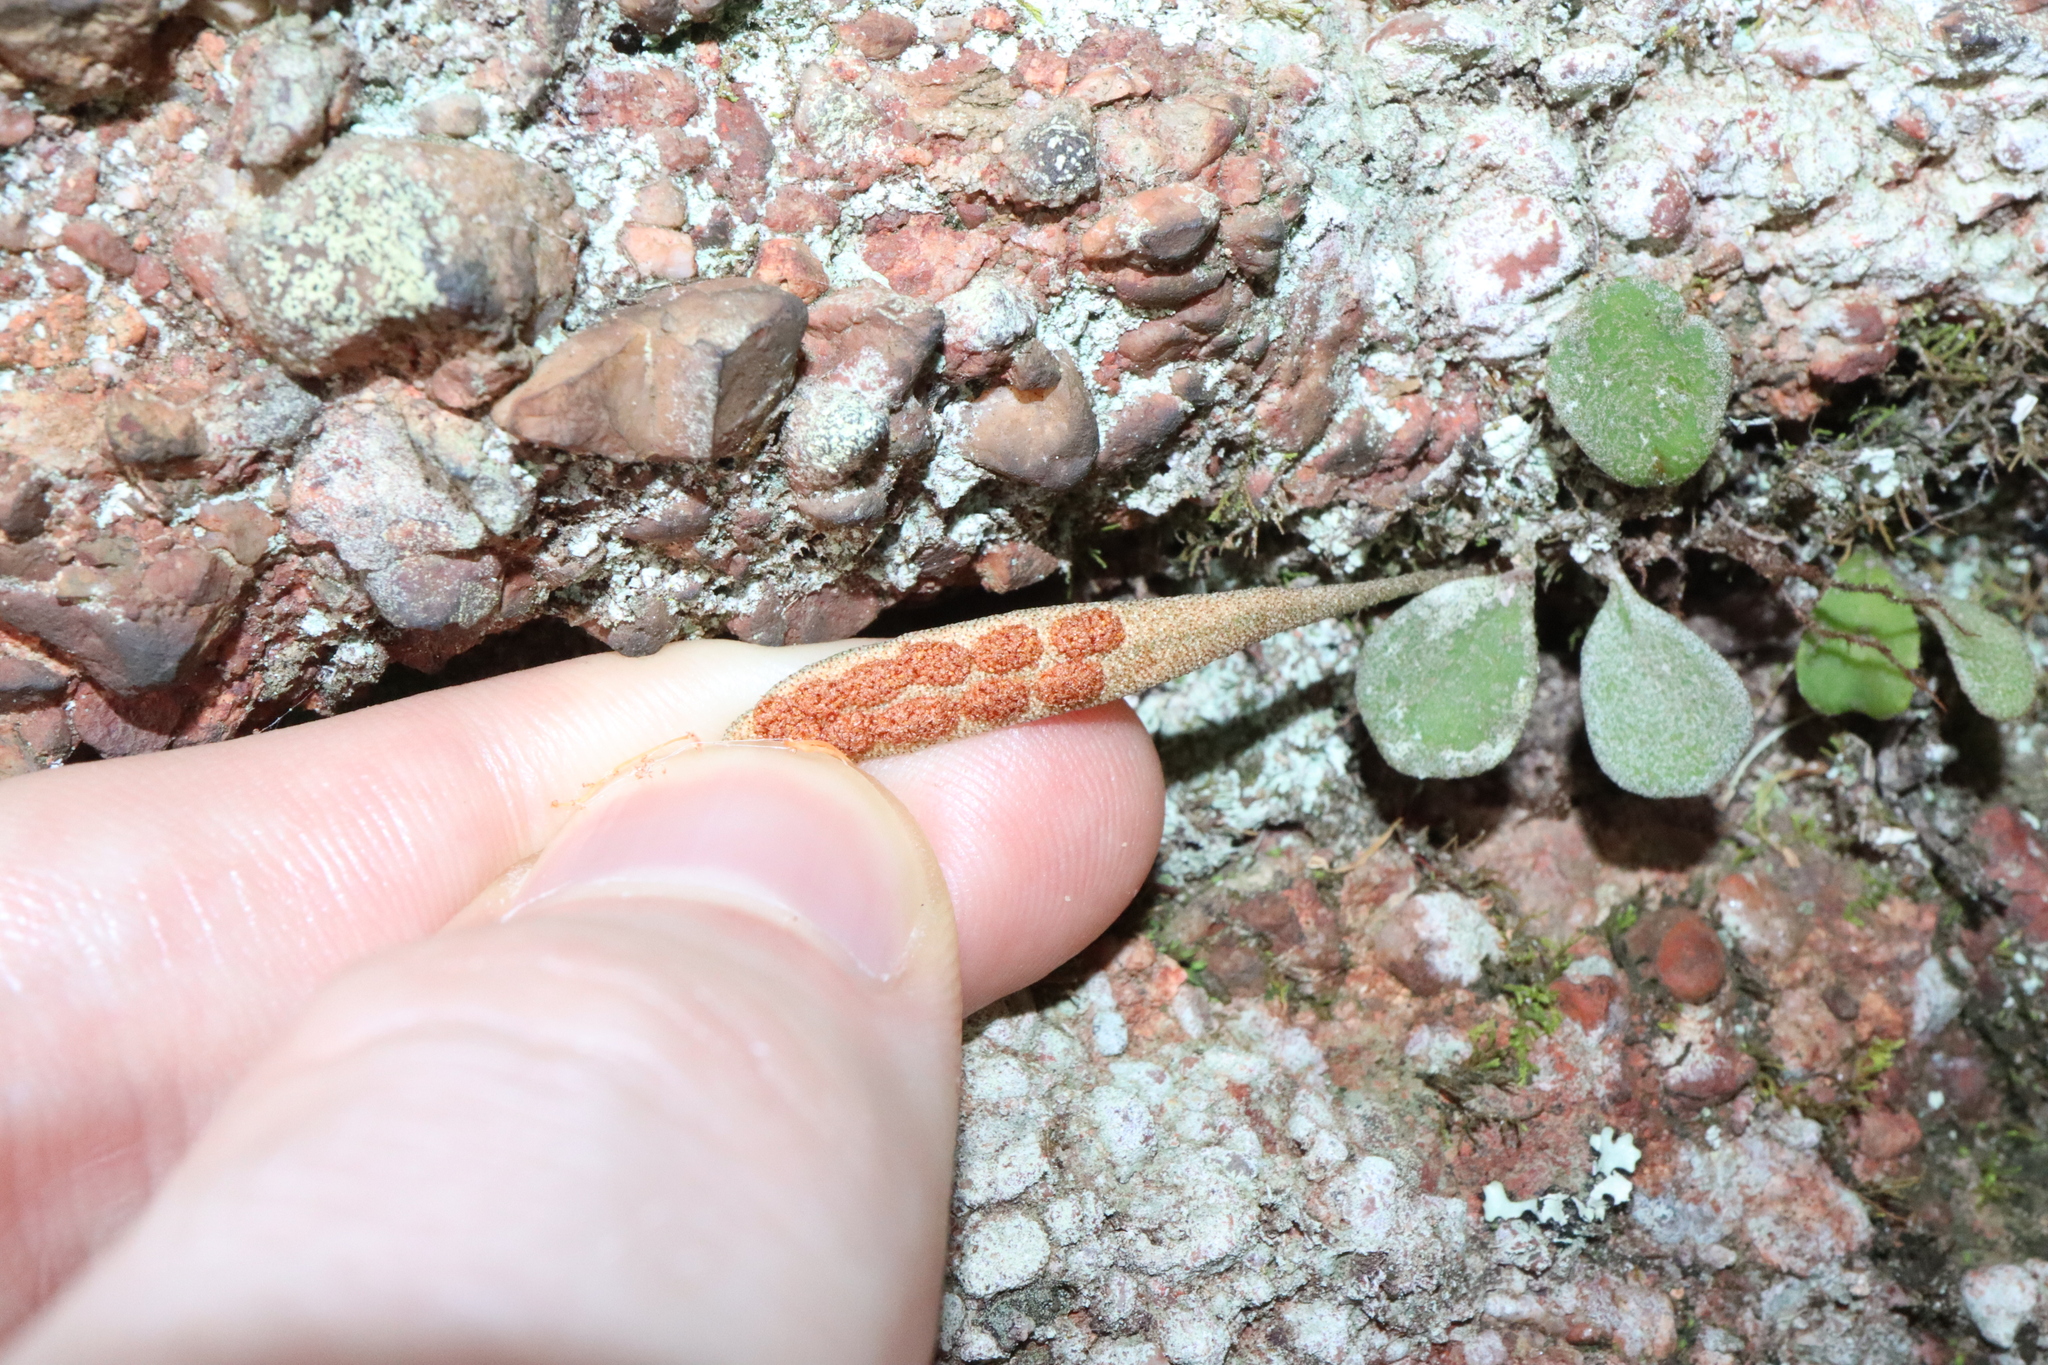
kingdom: Plantae
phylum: Tracheophyta
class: Polypodiopsida
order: Polypodiales
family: Polypodiaceae
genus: Pyrrosia
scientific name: Pyrrosia rupestris
